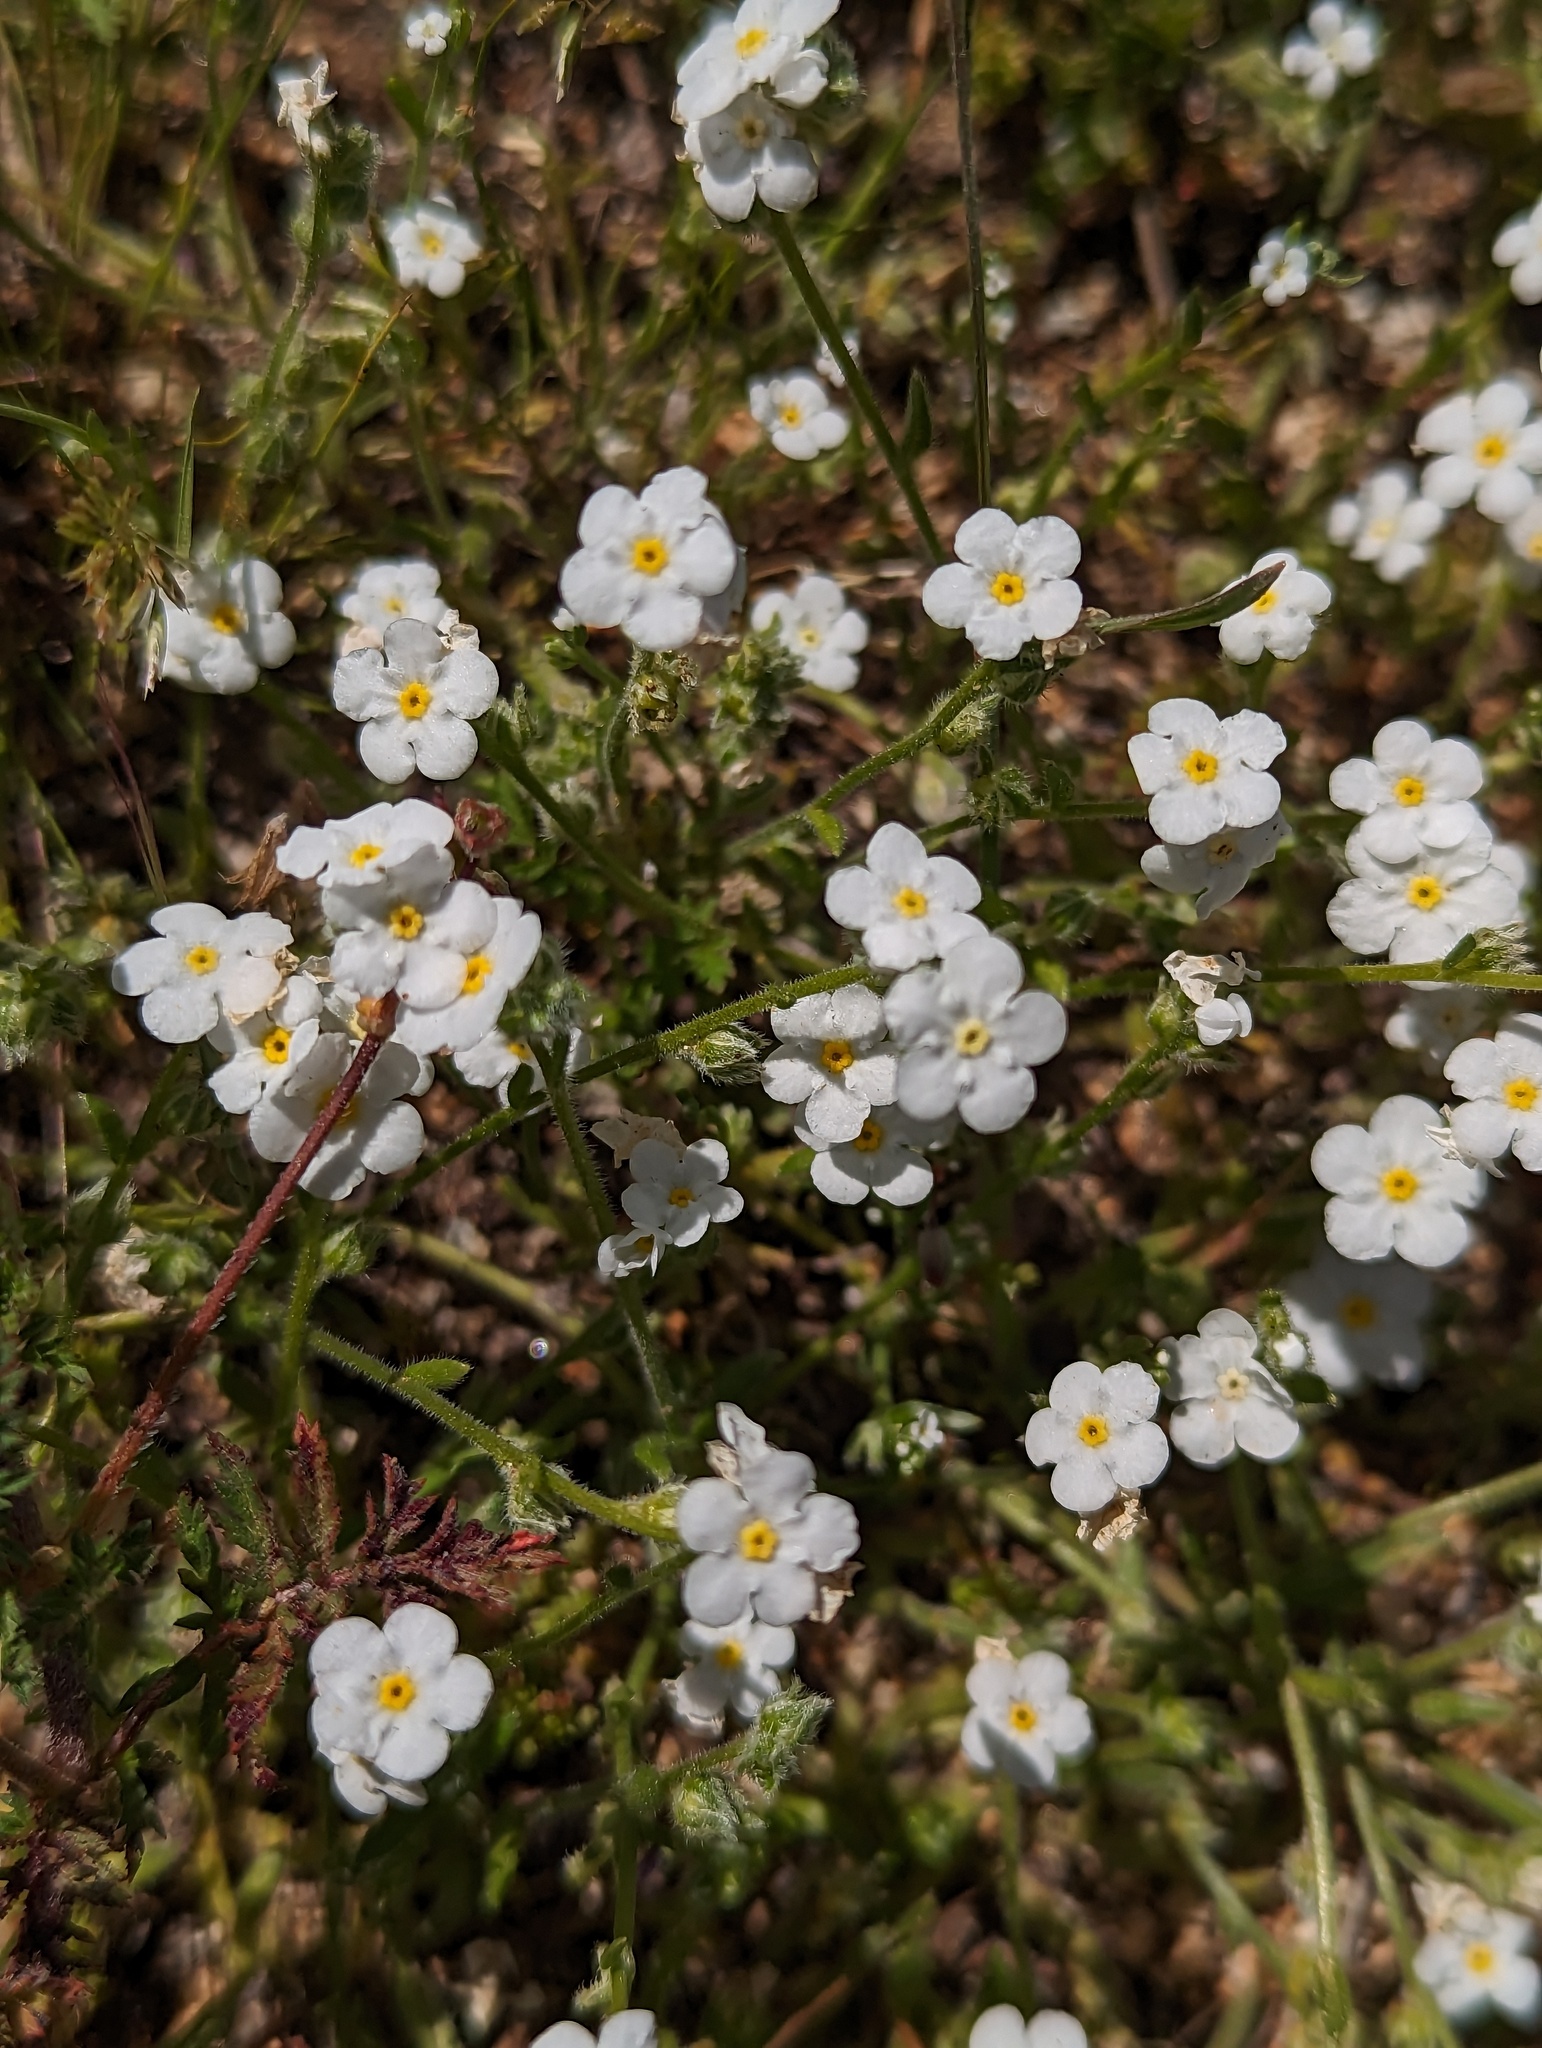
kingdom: Plantae
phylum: Tracheophyta
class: Magnoliopsida
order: Boraginales
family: Boraginaceae
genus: Plagiobothrys
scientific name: Plagiobothrys nothofulvus
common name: Popcorn-flower
